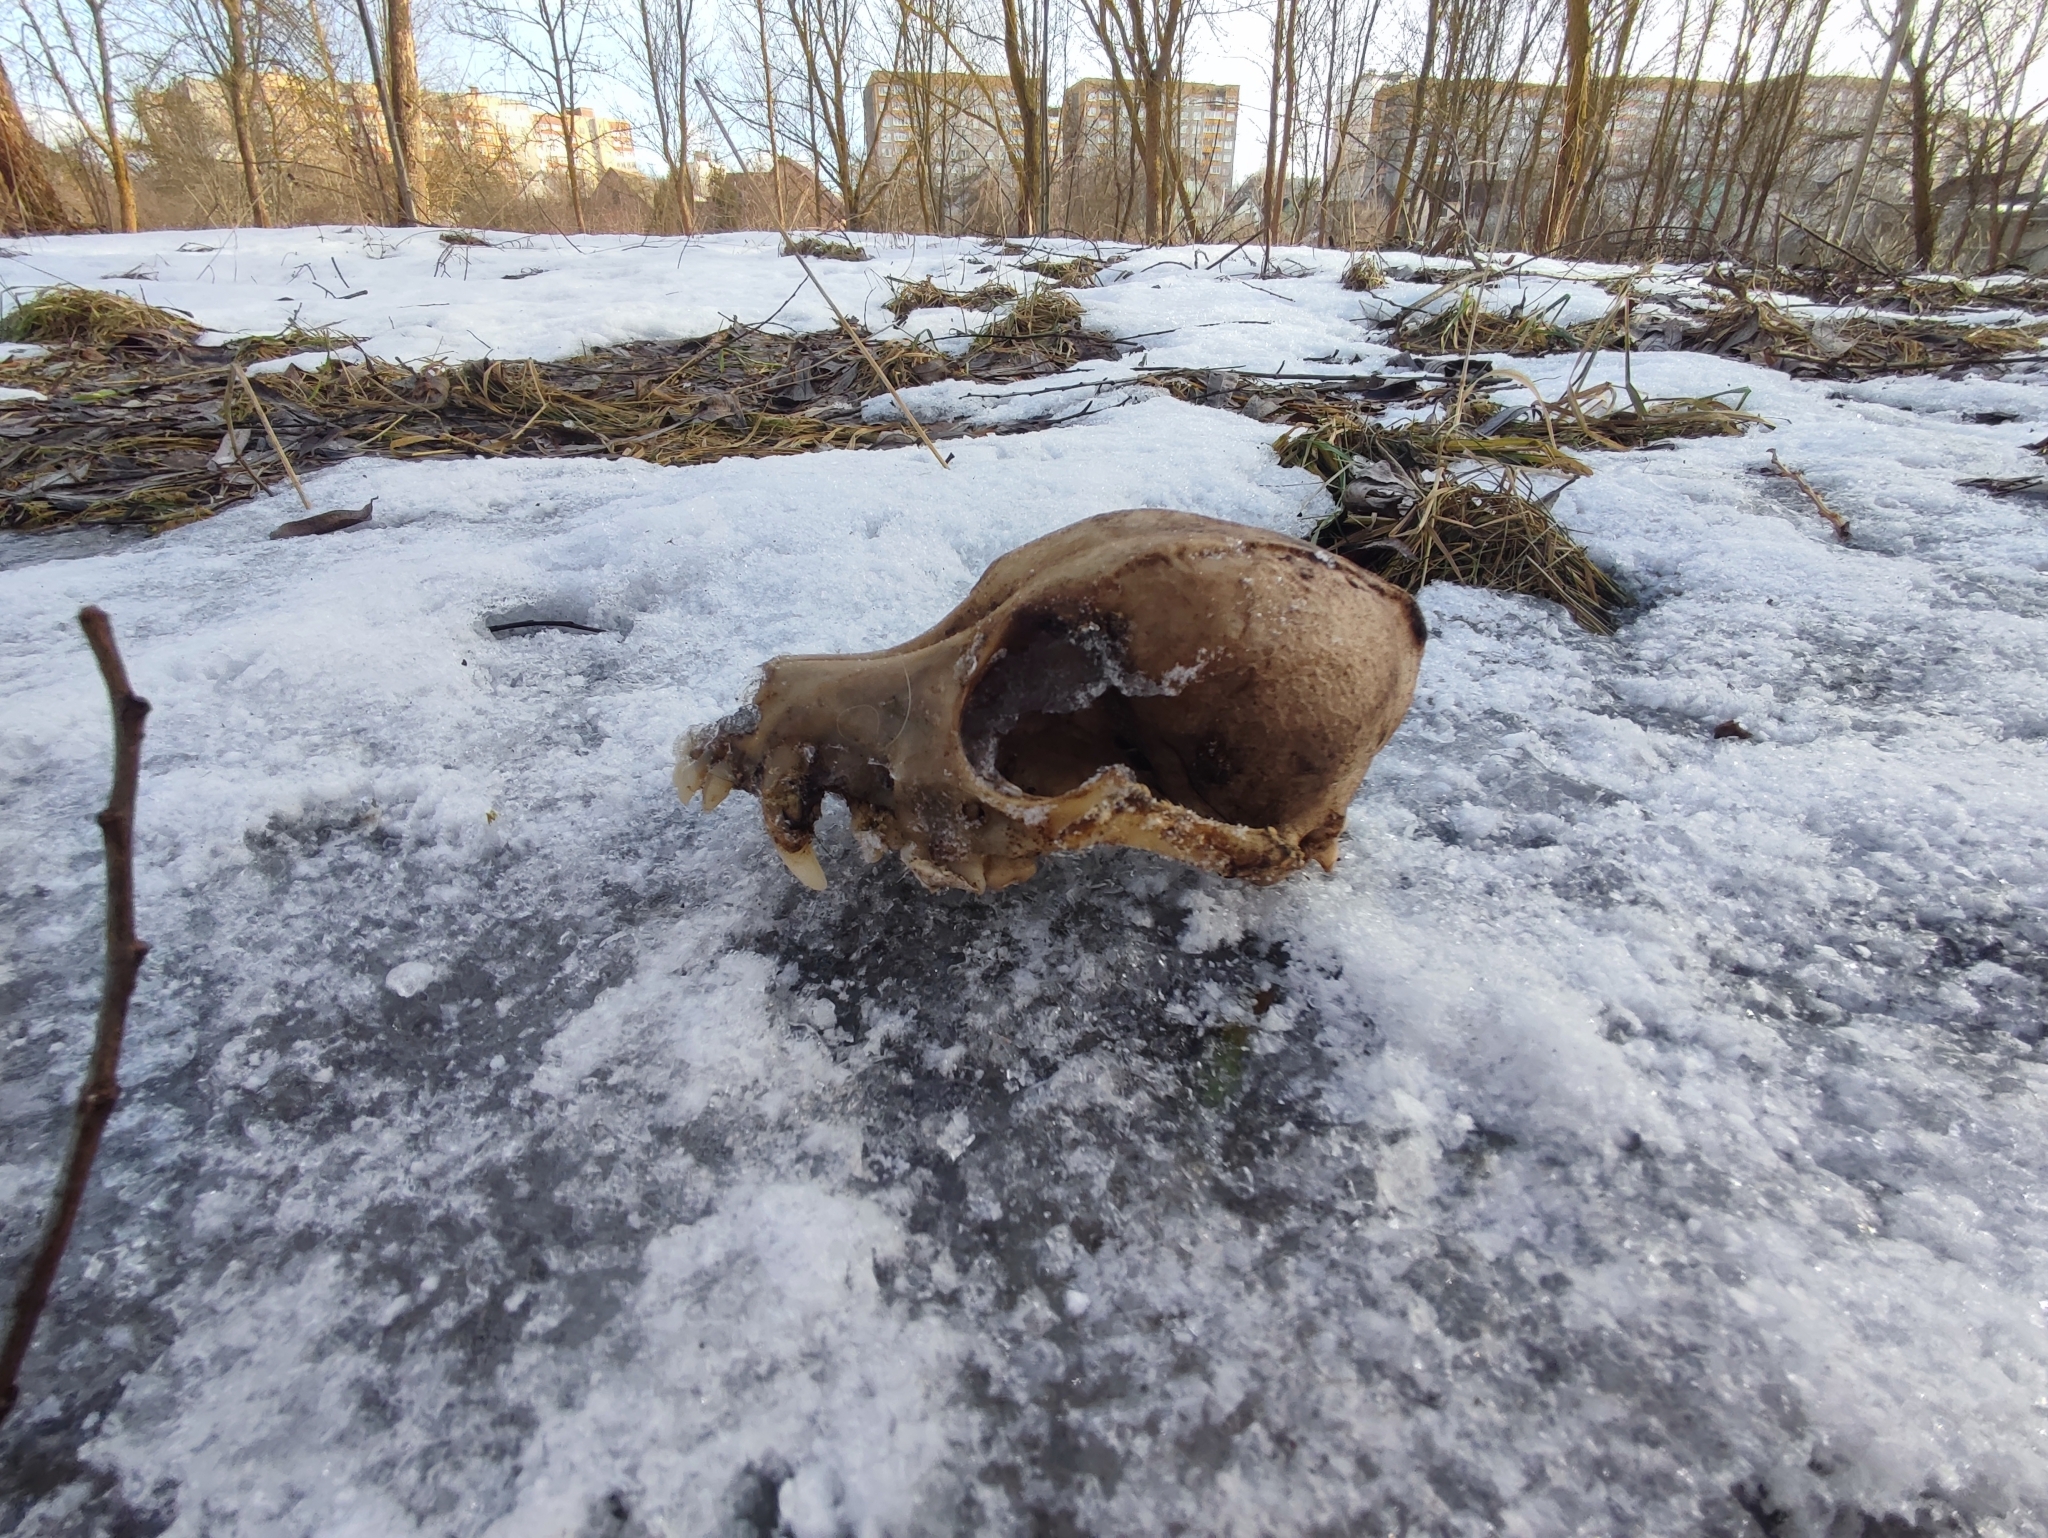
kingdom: Animalia
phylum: Chordata
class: Mammalia
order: Carnivora
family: Canidae
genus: Canis
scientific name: Canis lupus
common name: Gray wolf
